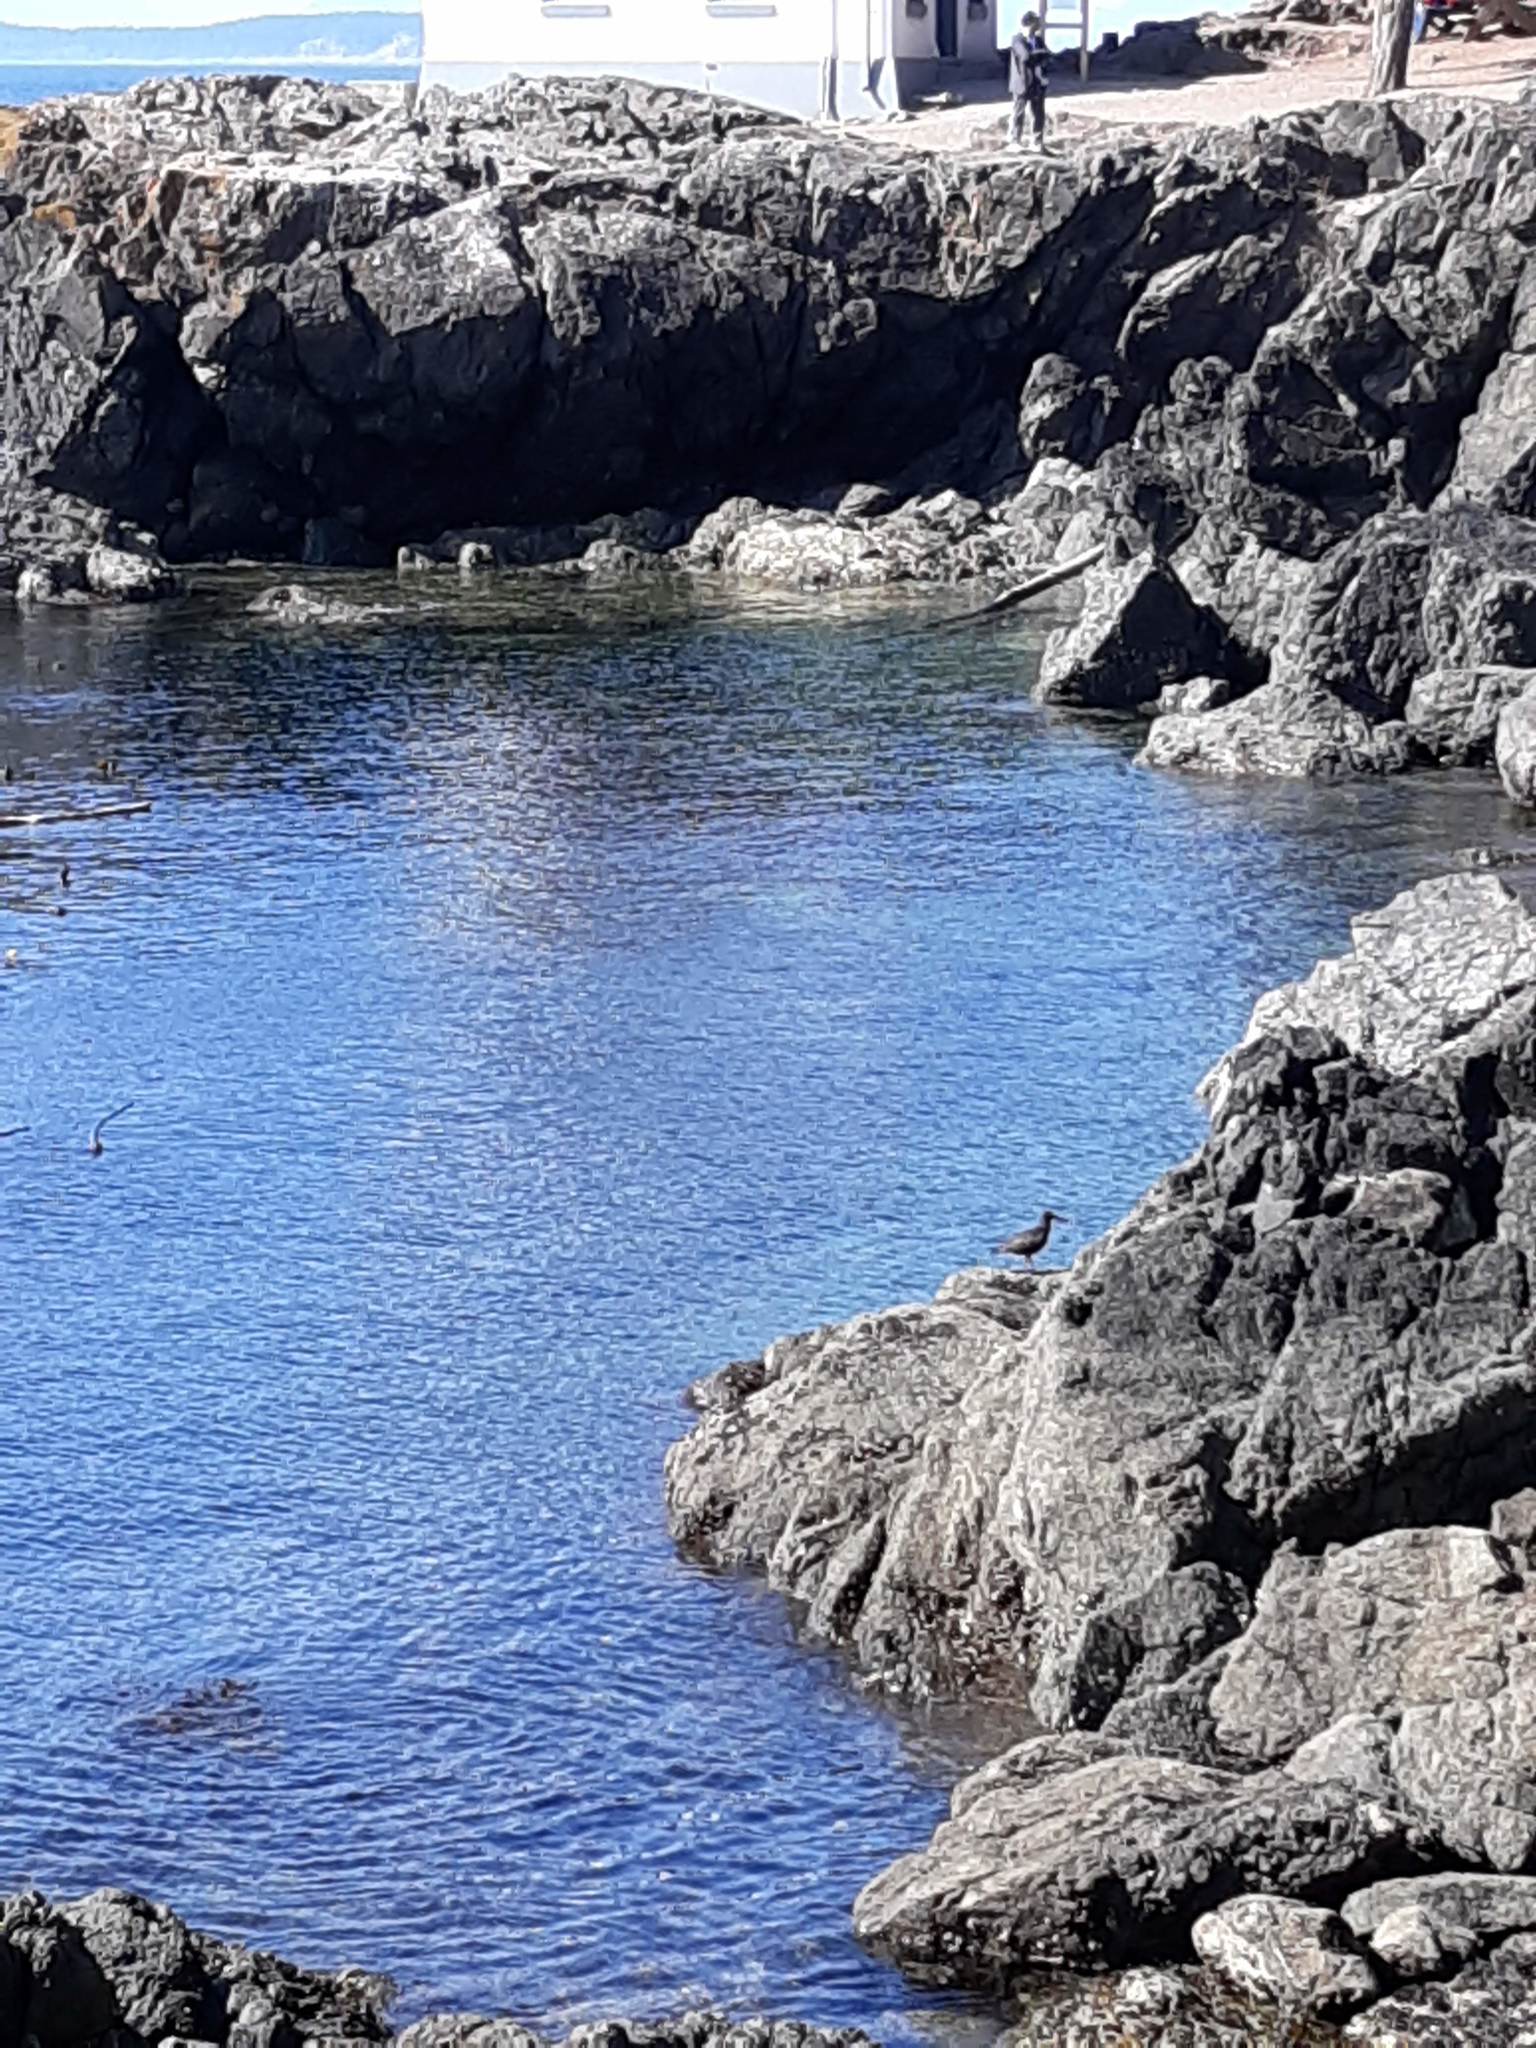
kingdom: Animalia
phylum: Chordata
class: Aves
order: Charadriiformes
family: Haematopodidae
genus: Haematopus
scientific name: Haematopus bachmani
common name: Black oystercatcher
